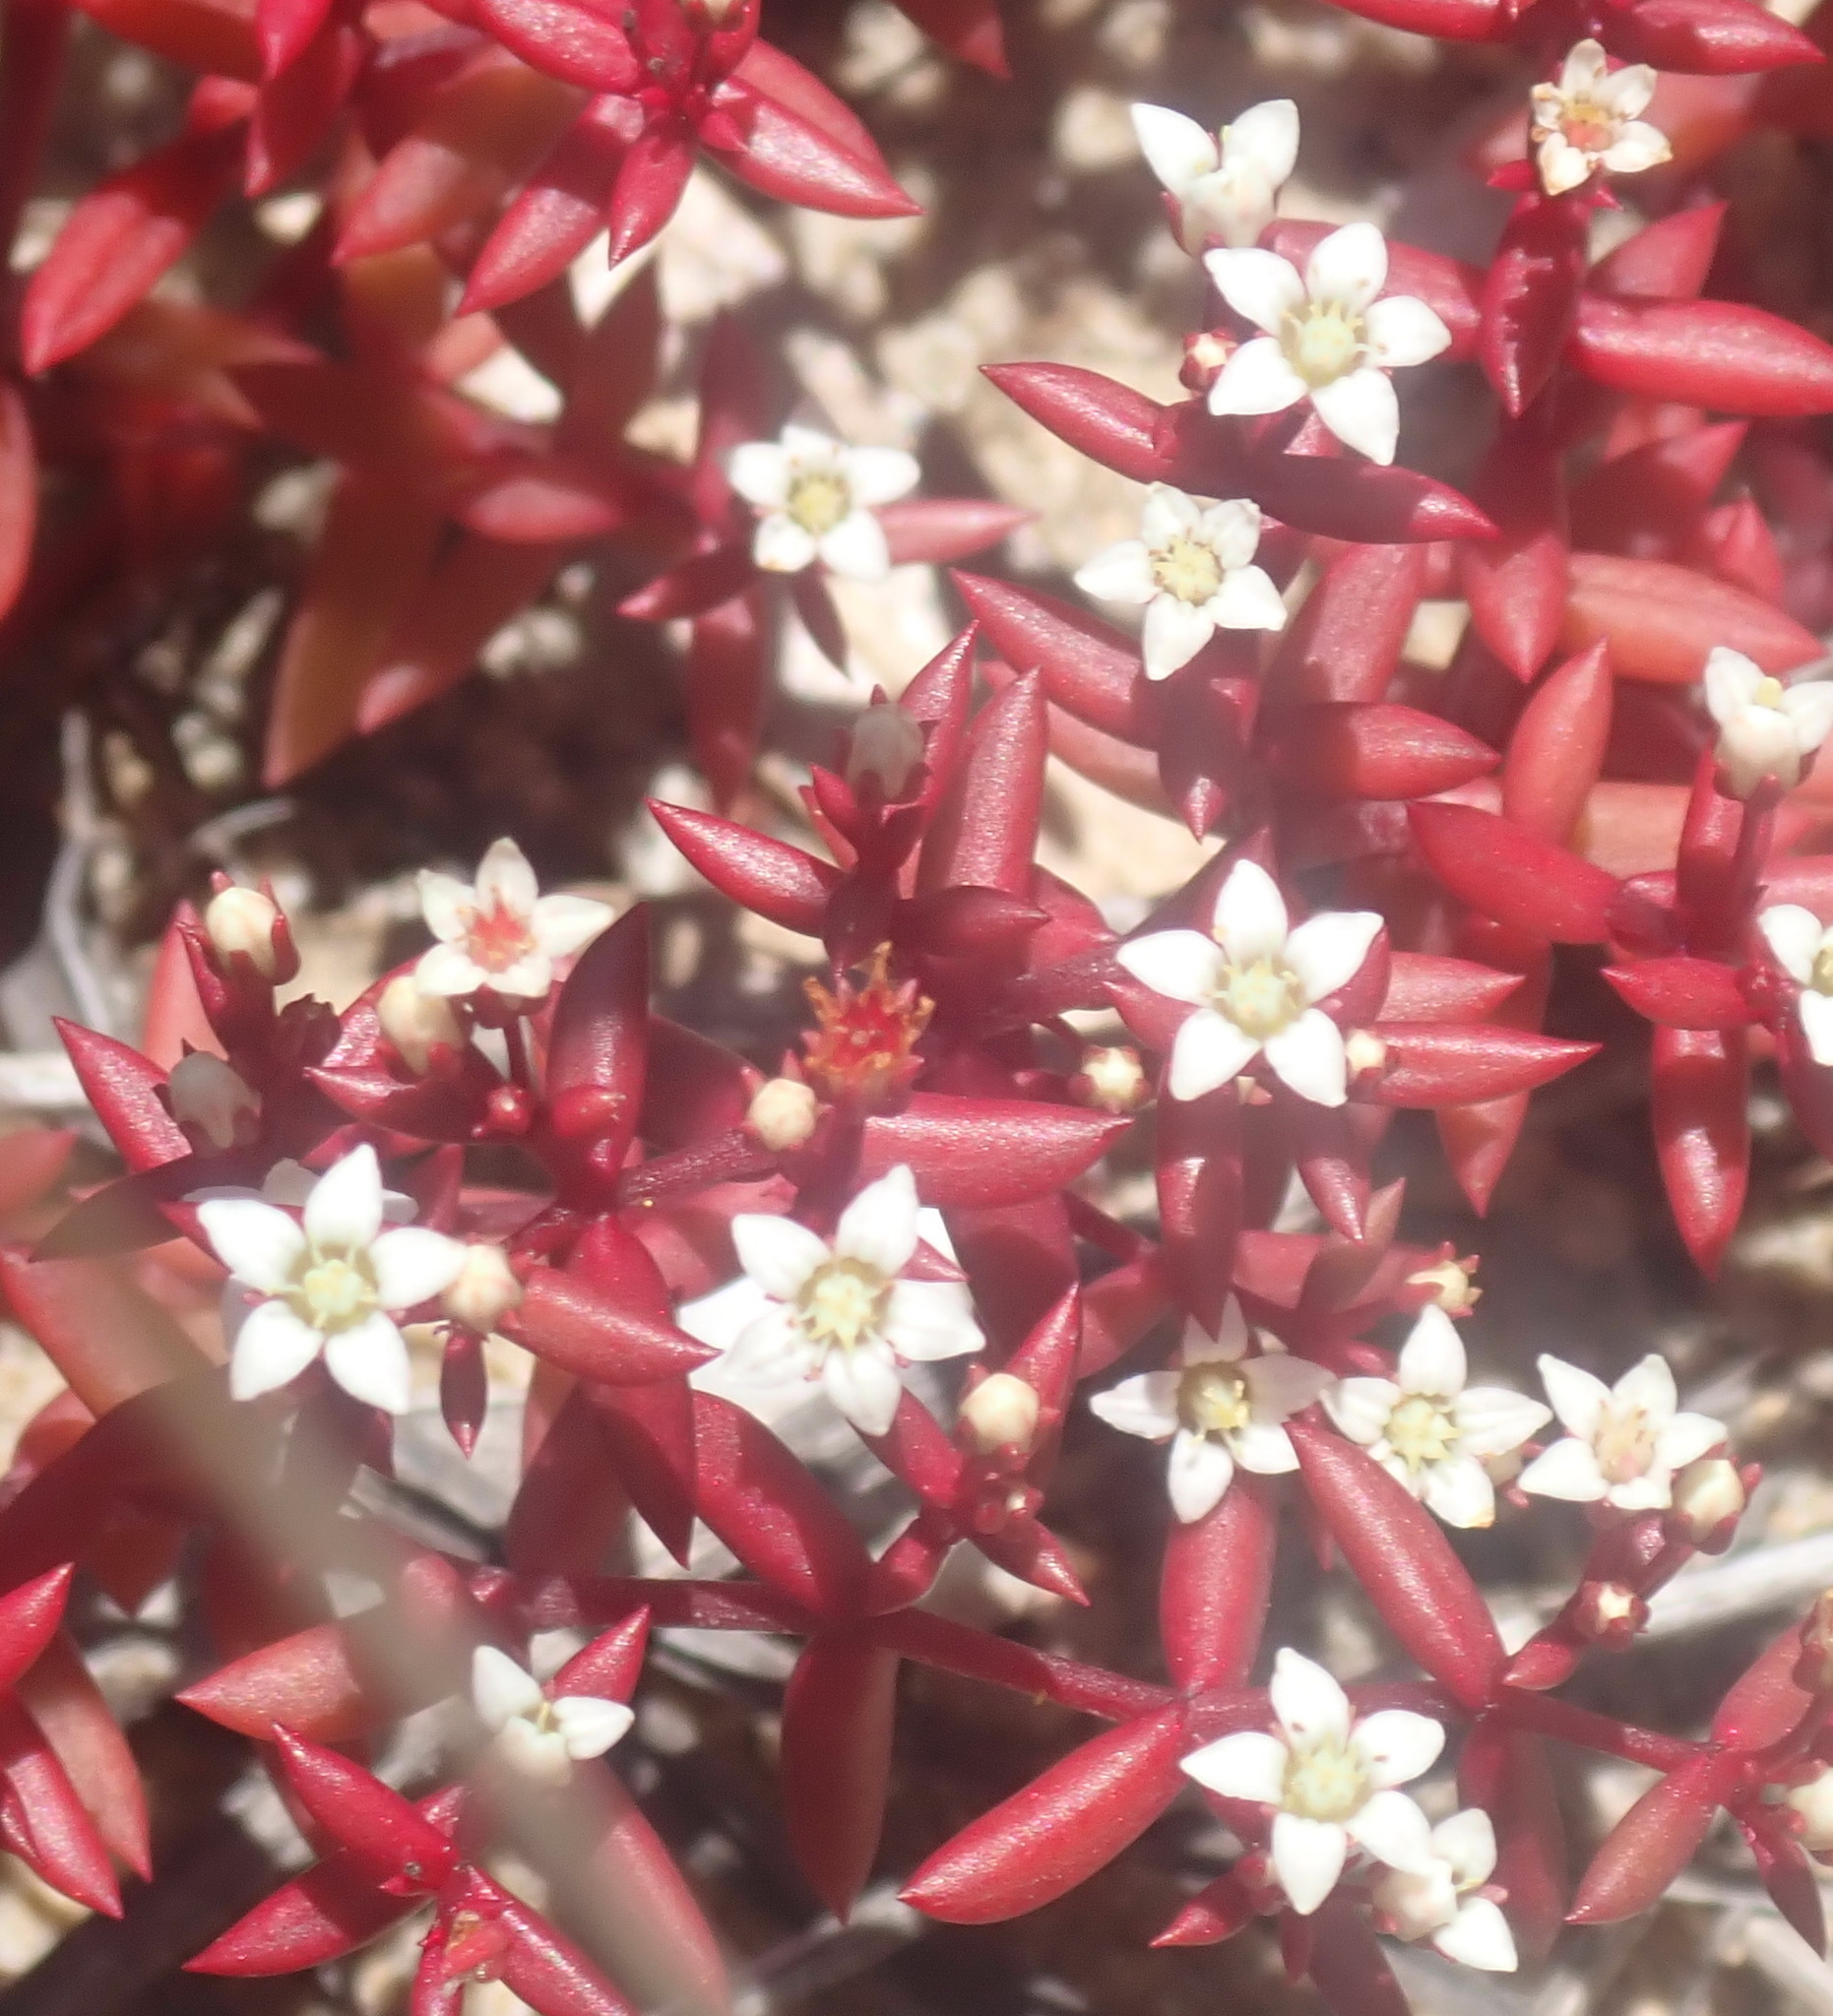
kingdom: Plantae
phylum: Tracheophyta
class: Magnoliopsida
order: Saxifragales
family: Crassulaceae
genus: Crassula
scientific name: Crassula expansa
